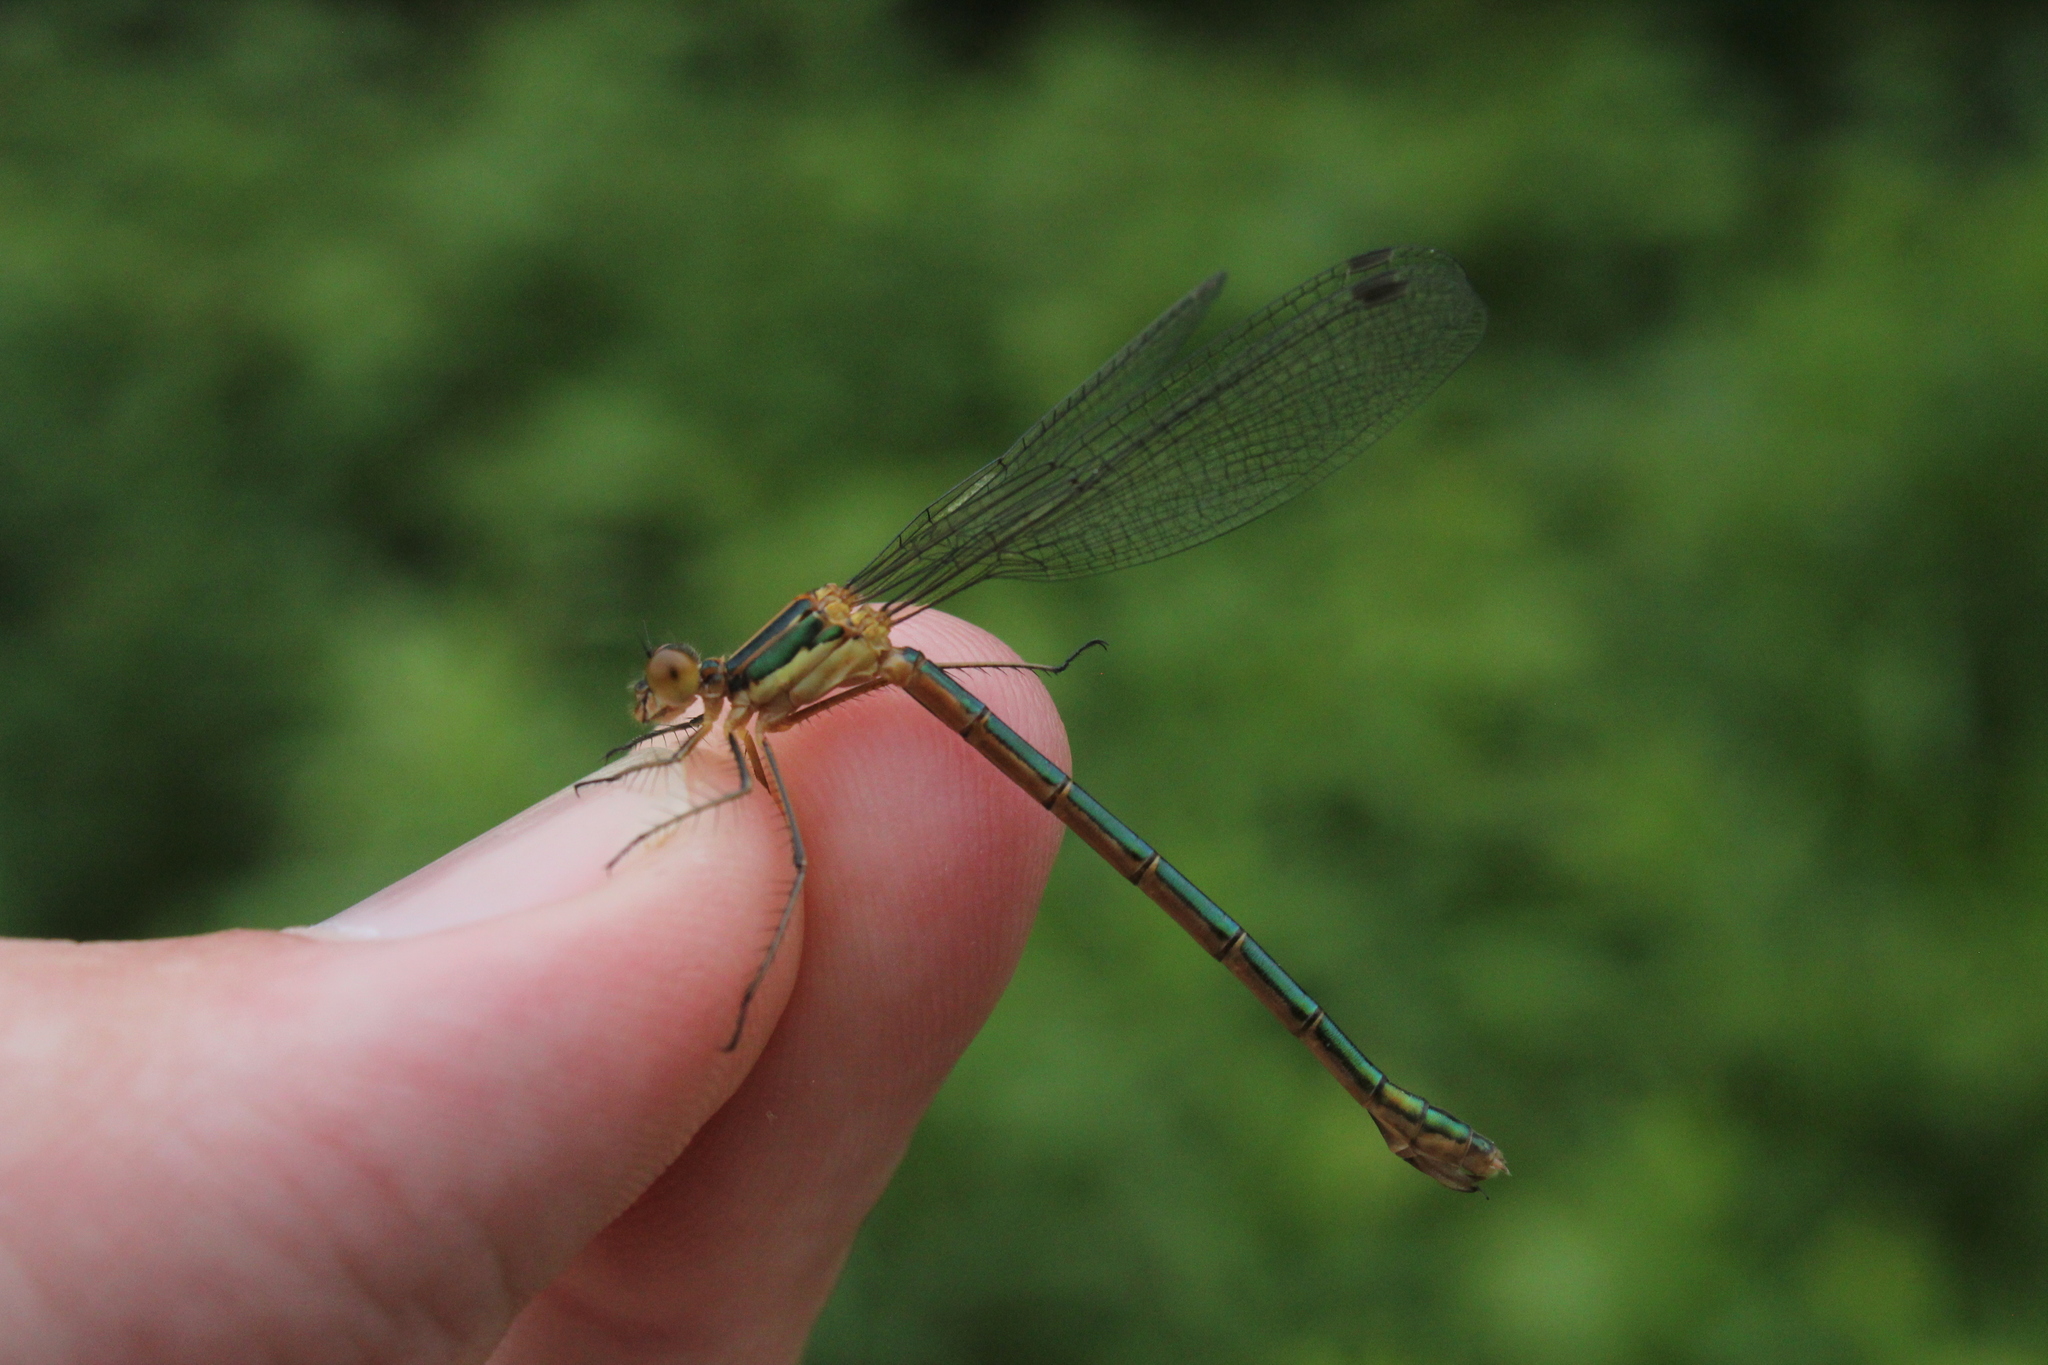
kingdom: Animalia
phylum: Arthropoda
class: Insecta
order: Odonata
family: Lestidae
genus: Lestes
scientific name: Lestes dryas
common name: Scarce emerald damselfly
